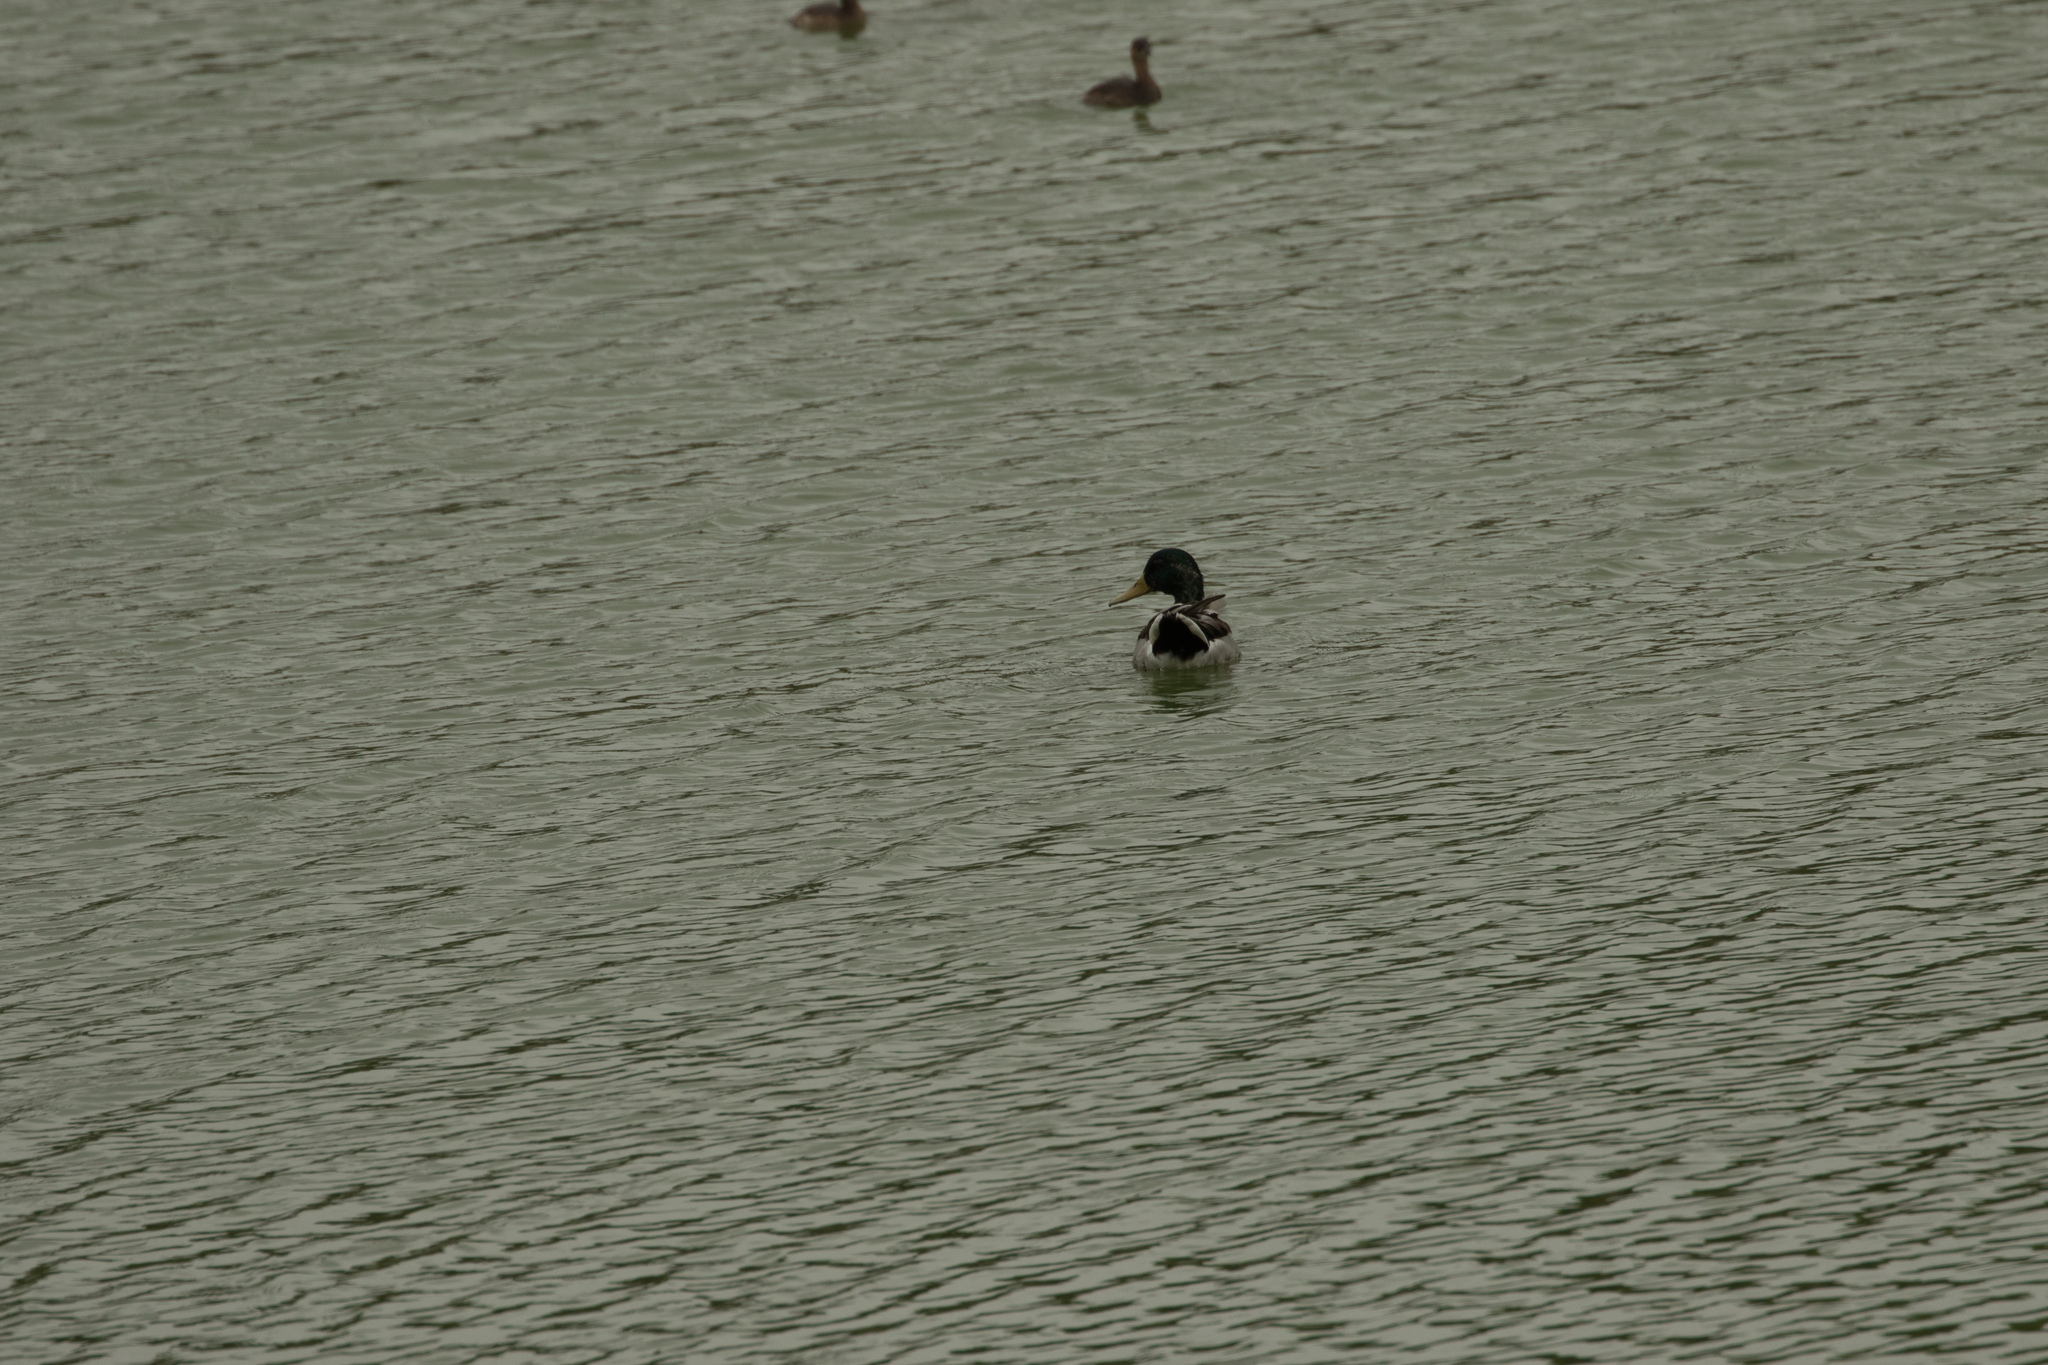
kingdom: Animalia
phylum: Chordata
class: Aves
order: Anseriformes
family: Anatidae
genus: Anas
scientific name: Anas platyrhynchos
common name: Mallard
